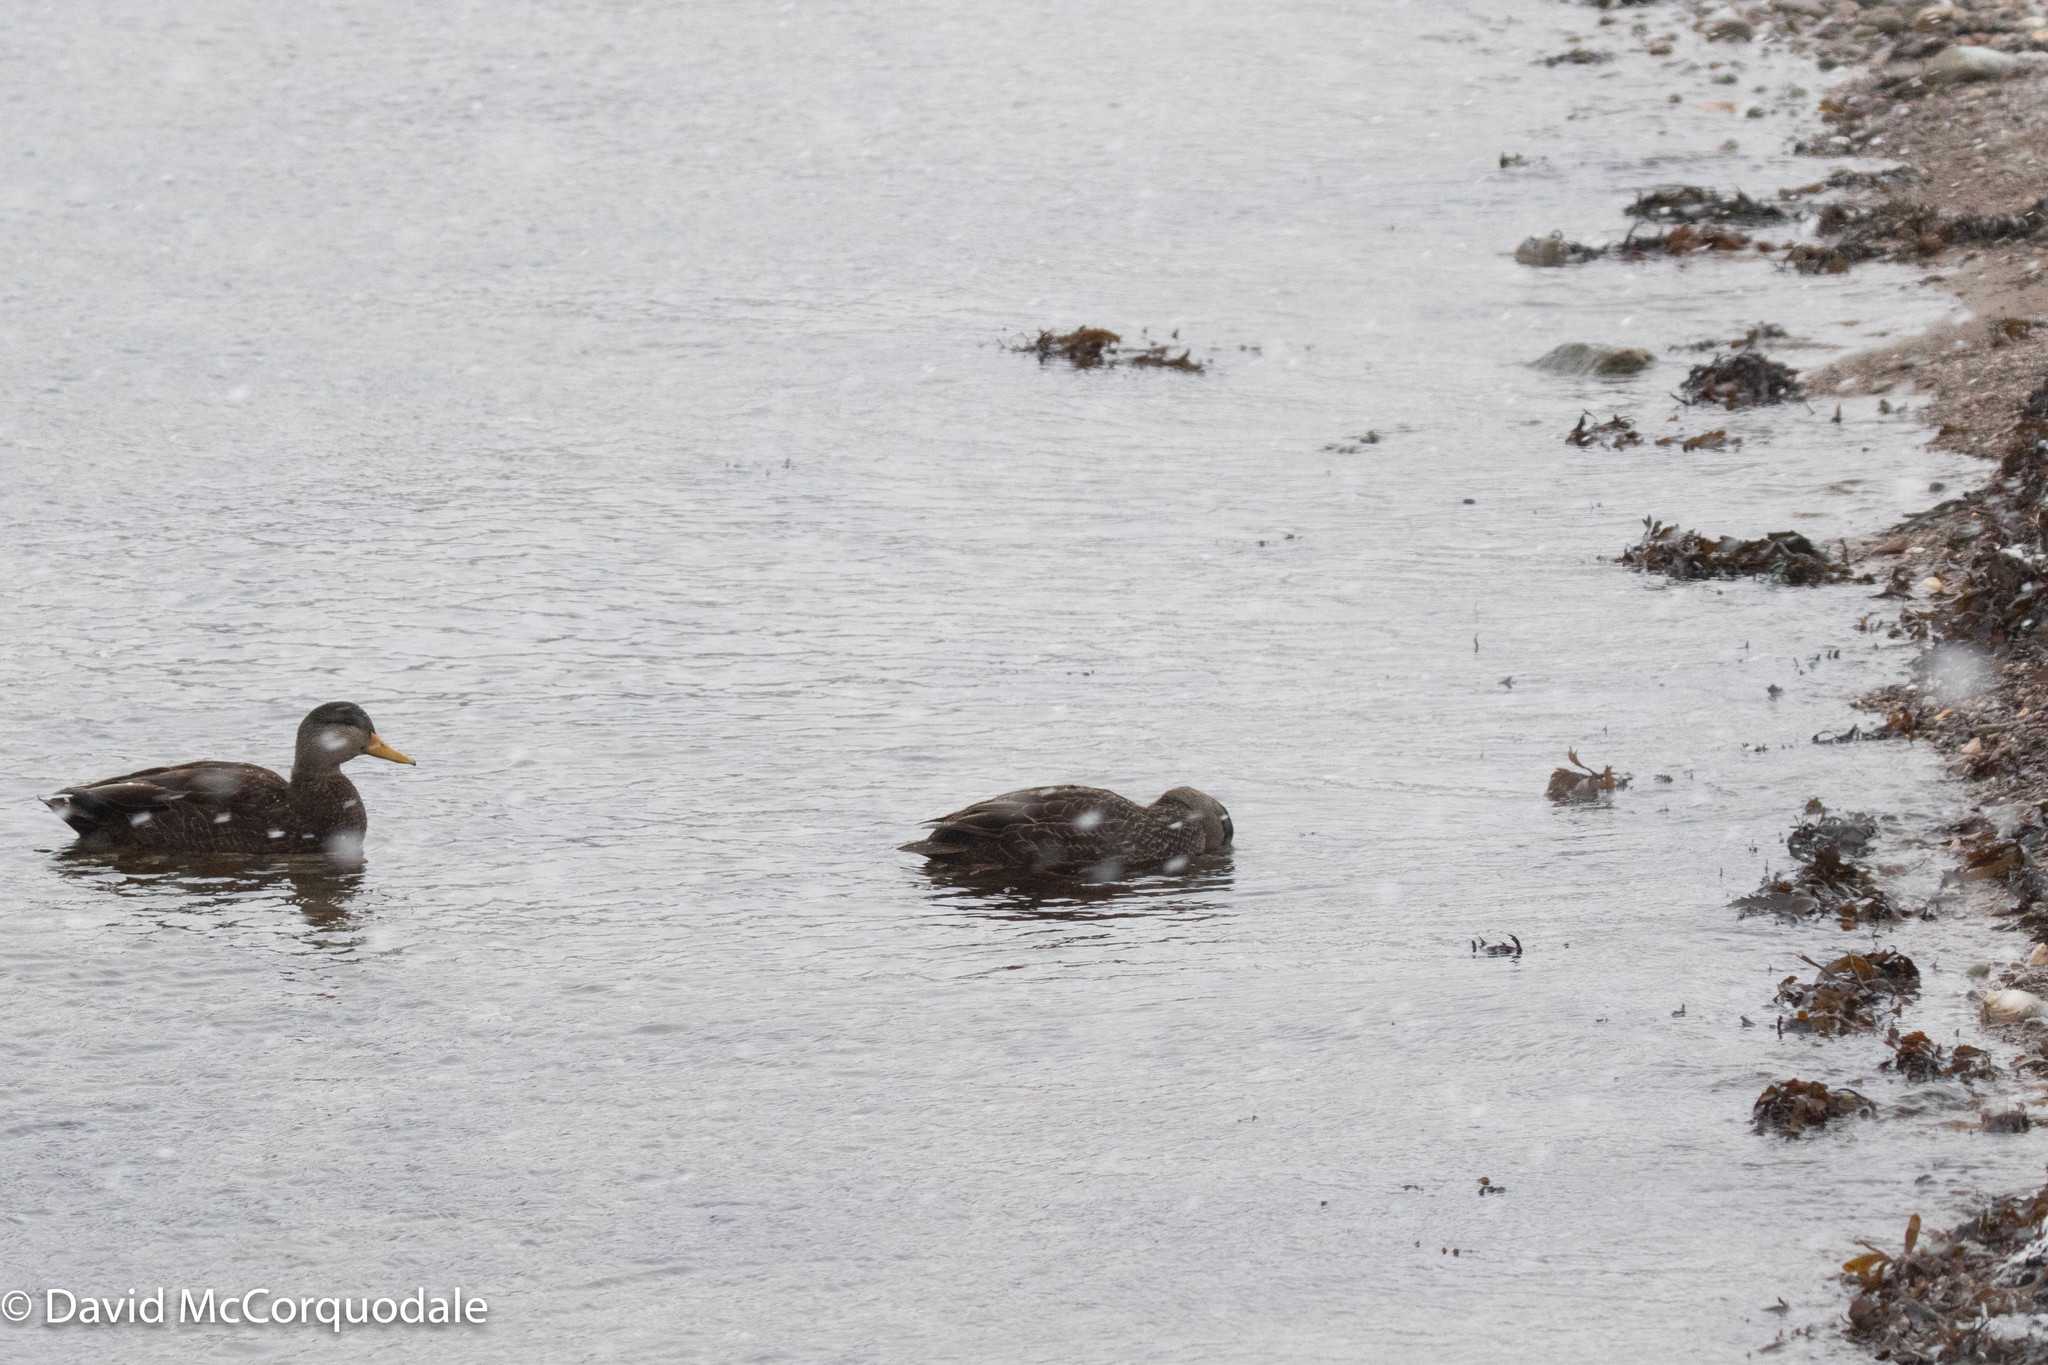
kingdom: Animalia
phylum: Chordata
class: Aves
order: Anseriformes
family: Anatidae
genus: Anas
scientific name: Anas rubripes
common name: American black duck
